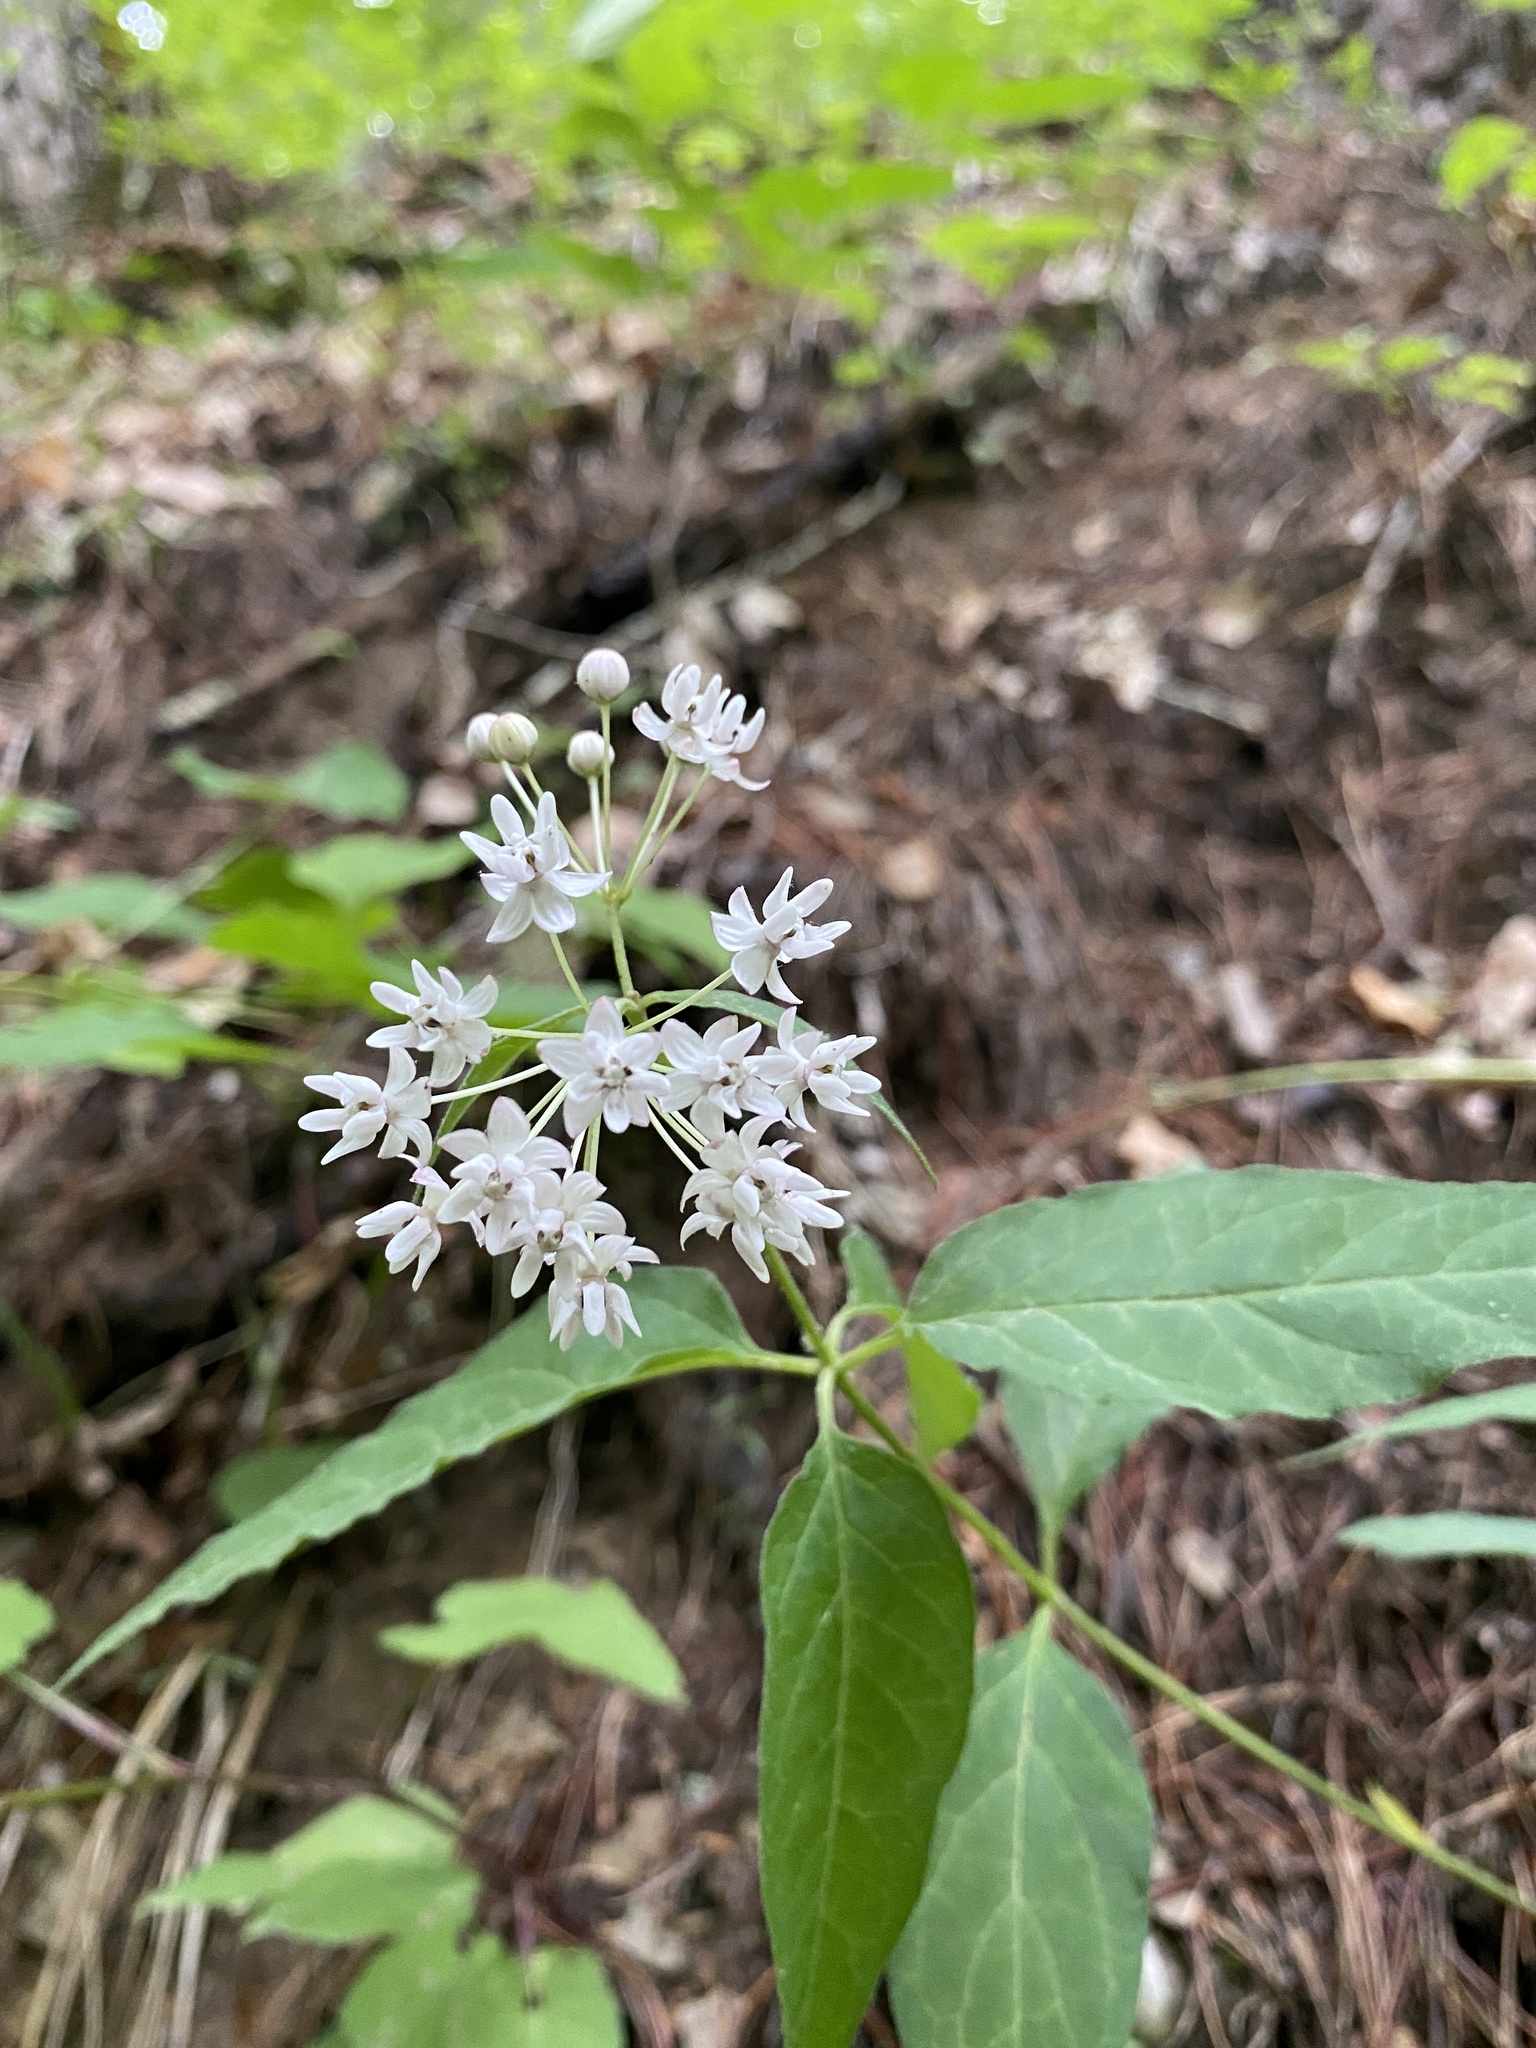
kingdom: Plantae
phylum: Tracheophyta
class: Magnoliopsida
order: Gentianales
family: Apocynaceae
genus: Asclepias
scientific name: Asclepias quadrifolia
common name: Whorled milkweed
